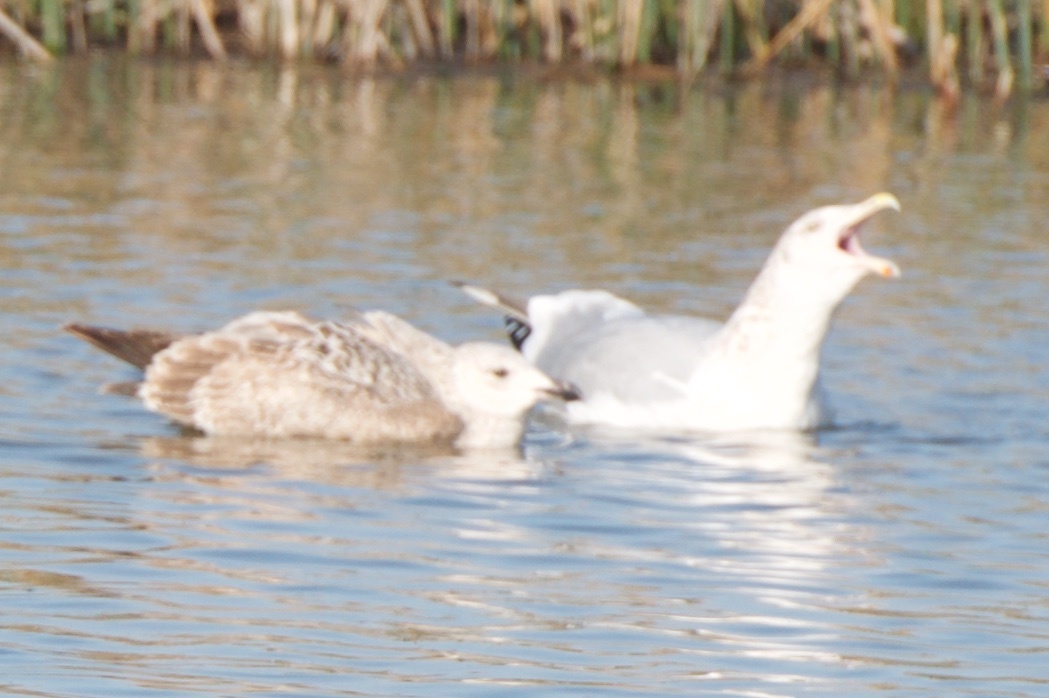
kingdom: Animalia
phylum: Chordata
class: Aves
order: Charadriiformes
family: Laridae
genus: Larus
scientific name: Larus argentatus
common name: Herring gull
